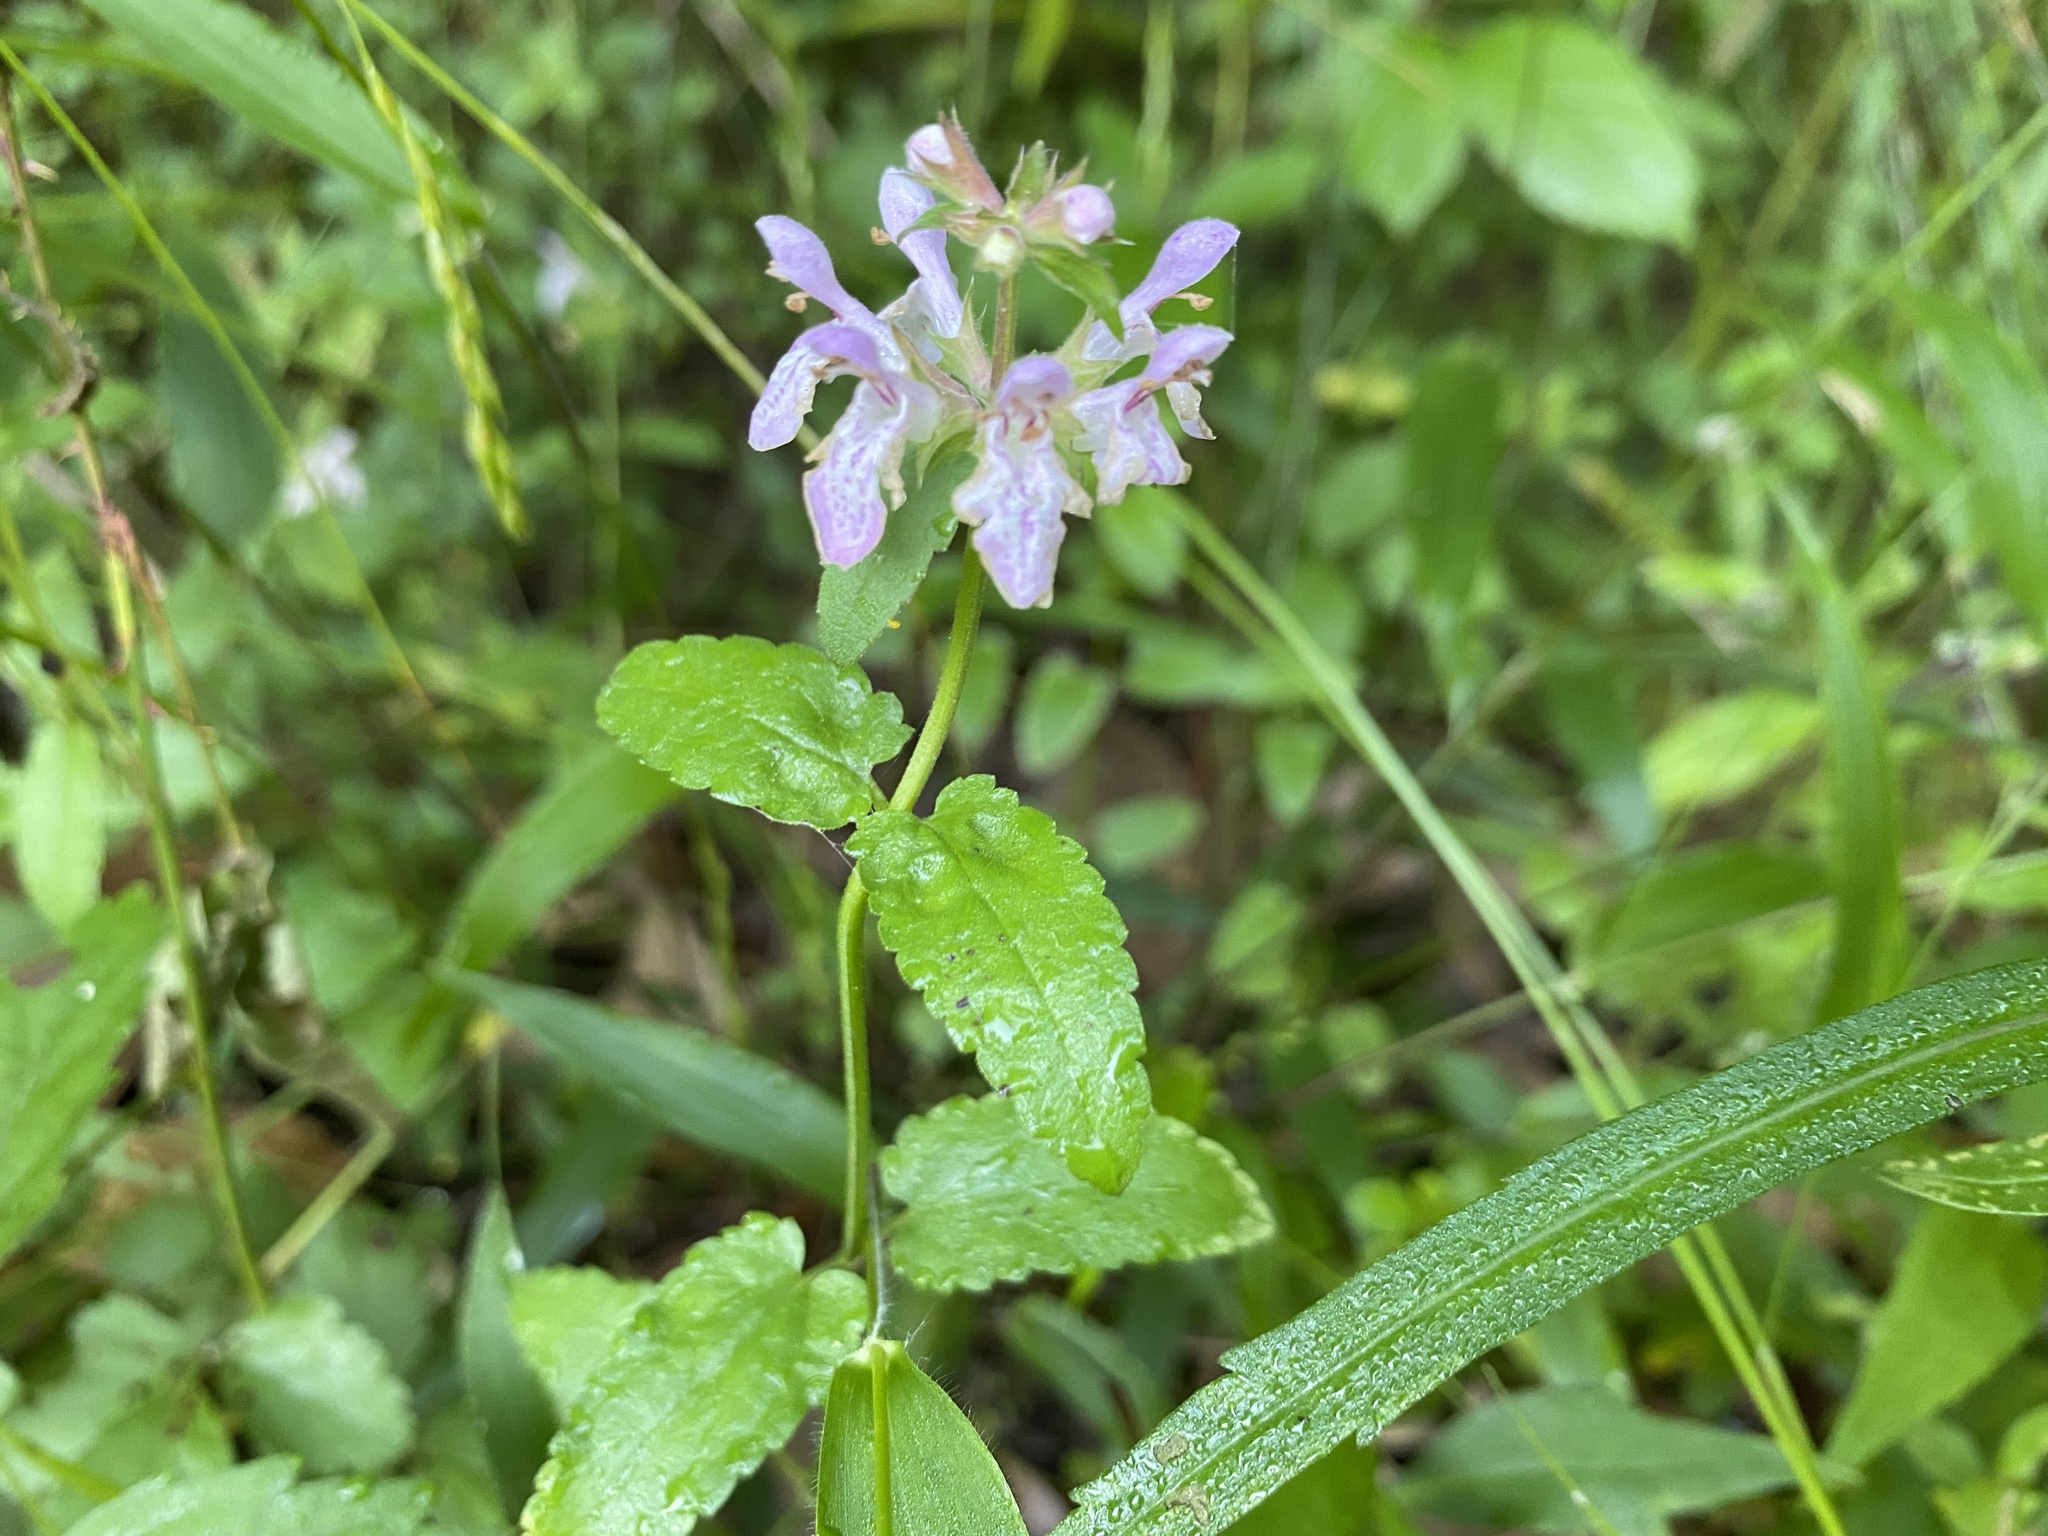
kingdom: Plantae
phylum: Tracheophyta
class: Magnoliopsida
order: Lamiales
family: Lamiaceae
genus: Stachys
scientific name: Stachys floridana
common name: Florida betony
